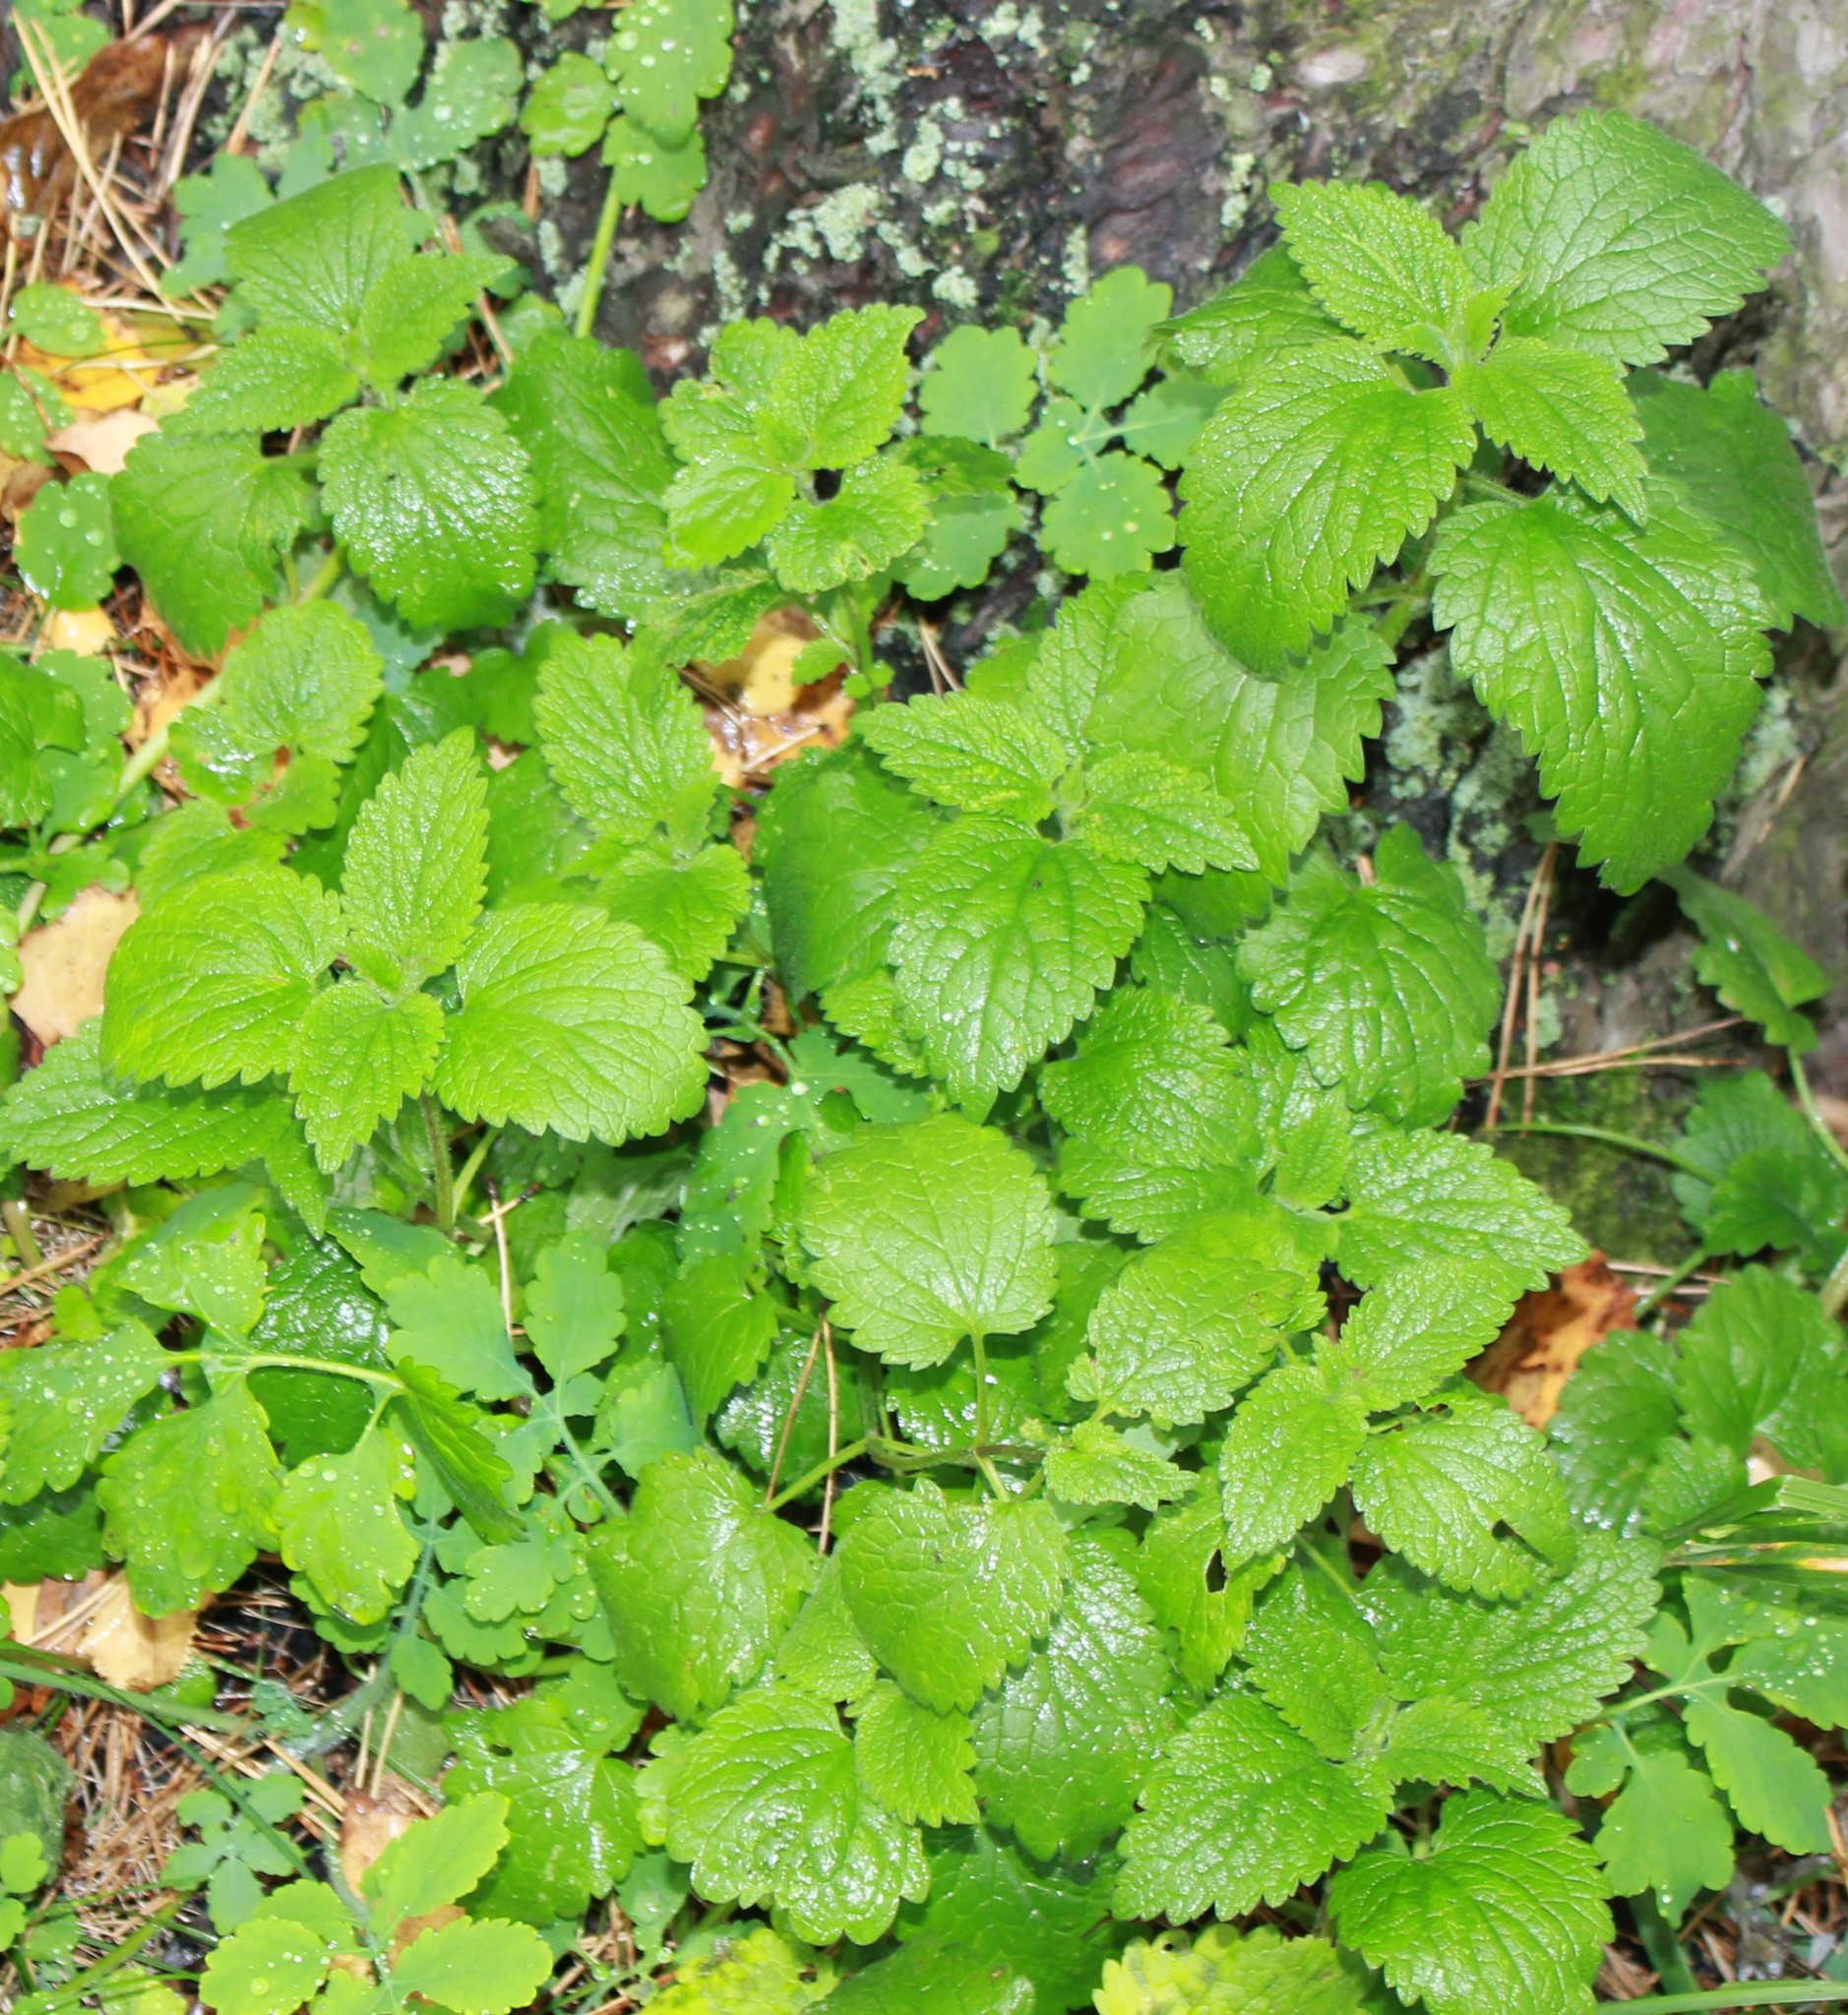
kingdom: Plantae
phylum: Tracheophyta
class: Magnoliopsida
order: Lamiales
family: Lamiaceae
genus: Lamium
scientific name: Lamium album
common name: White dead-nettle
